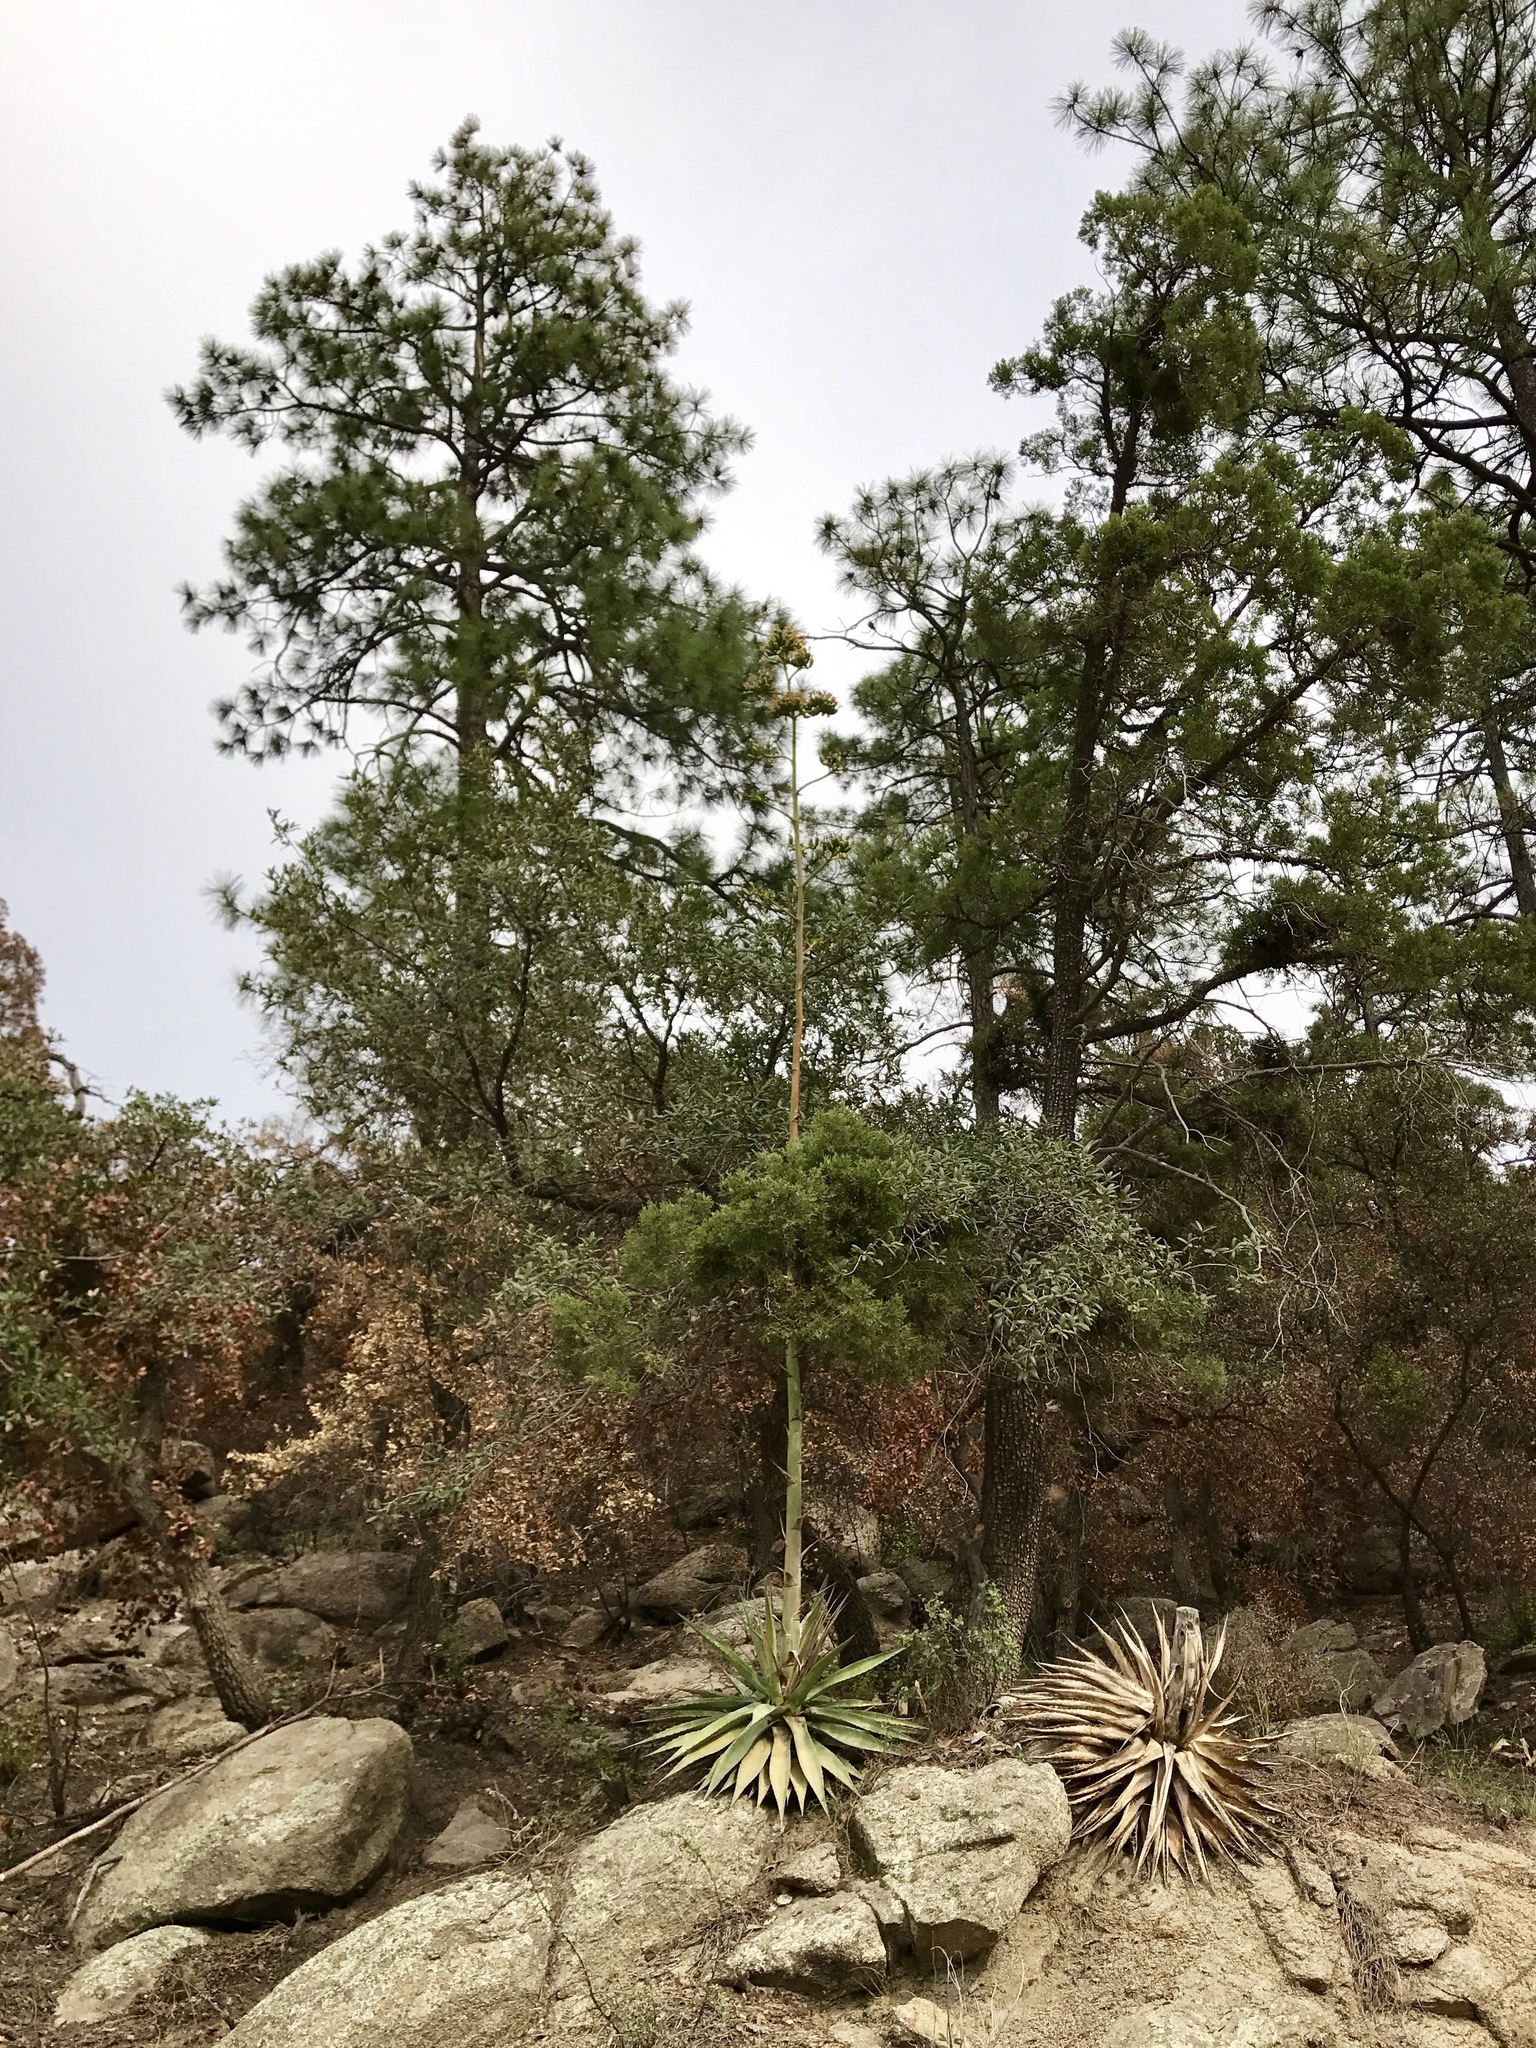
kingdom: Plantae
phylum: Tracheophyta
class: Pinopsida
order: Pinales
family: Pinaceae
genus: Pinus
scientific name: Pinus ponderosa
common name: Western yellow-pine
